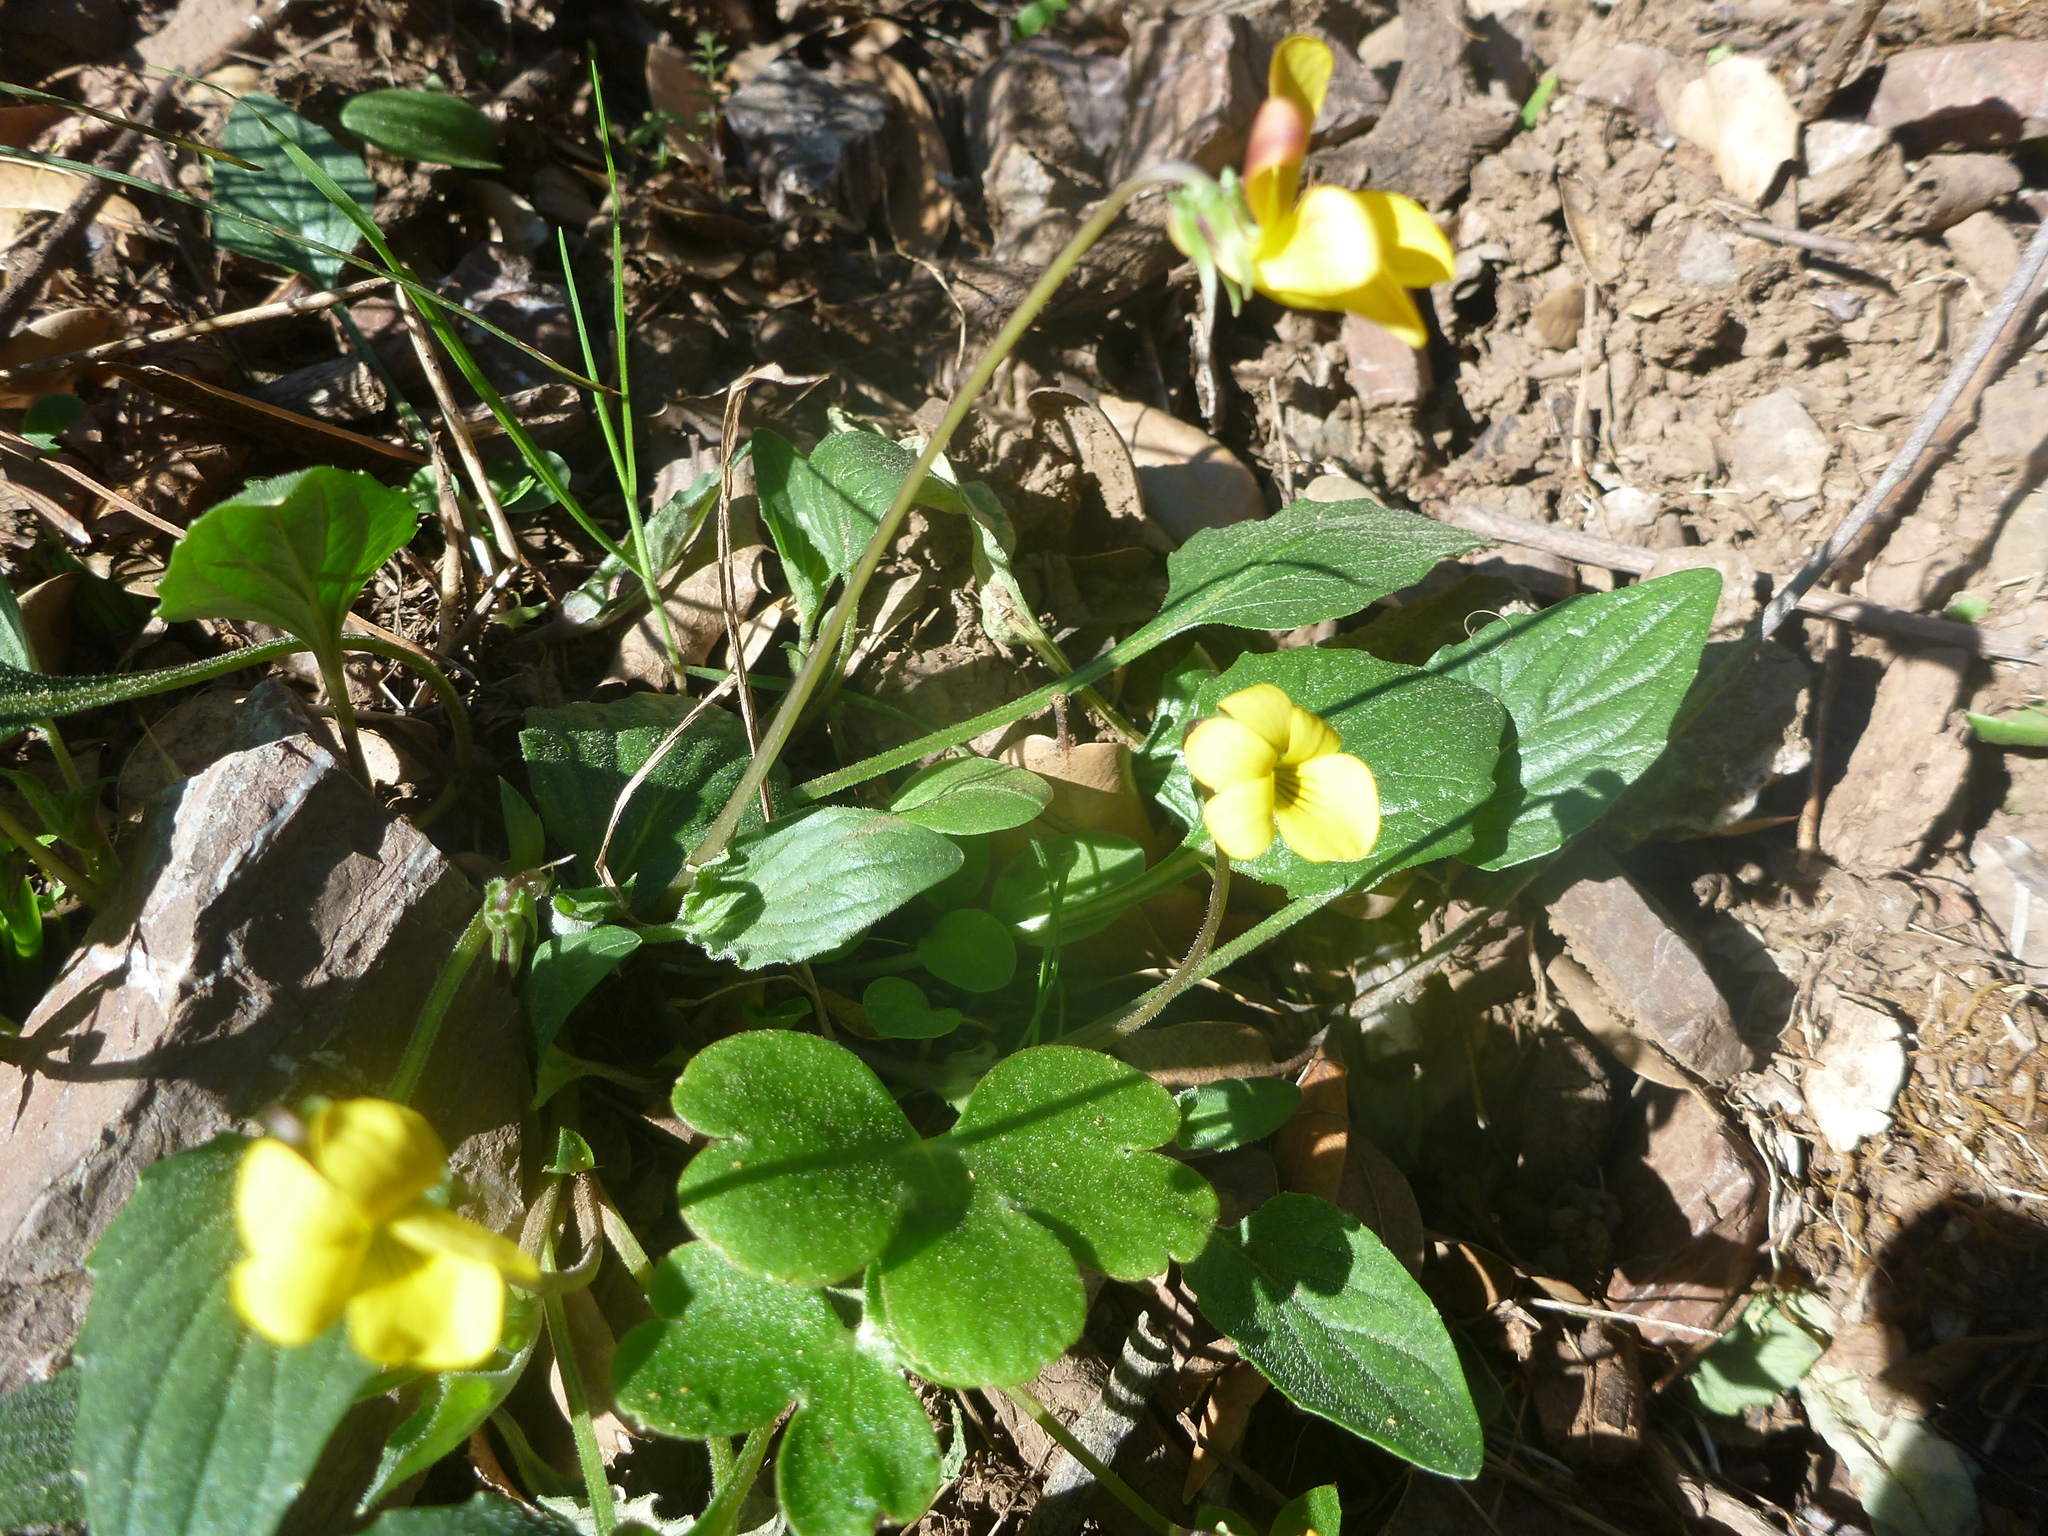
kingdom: Plantae
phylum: Tracheophyta
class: Magnoliopsida
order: Malpighiales
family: Violaceae
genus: Viola
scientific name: Viola purpurea
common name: Pine violet
